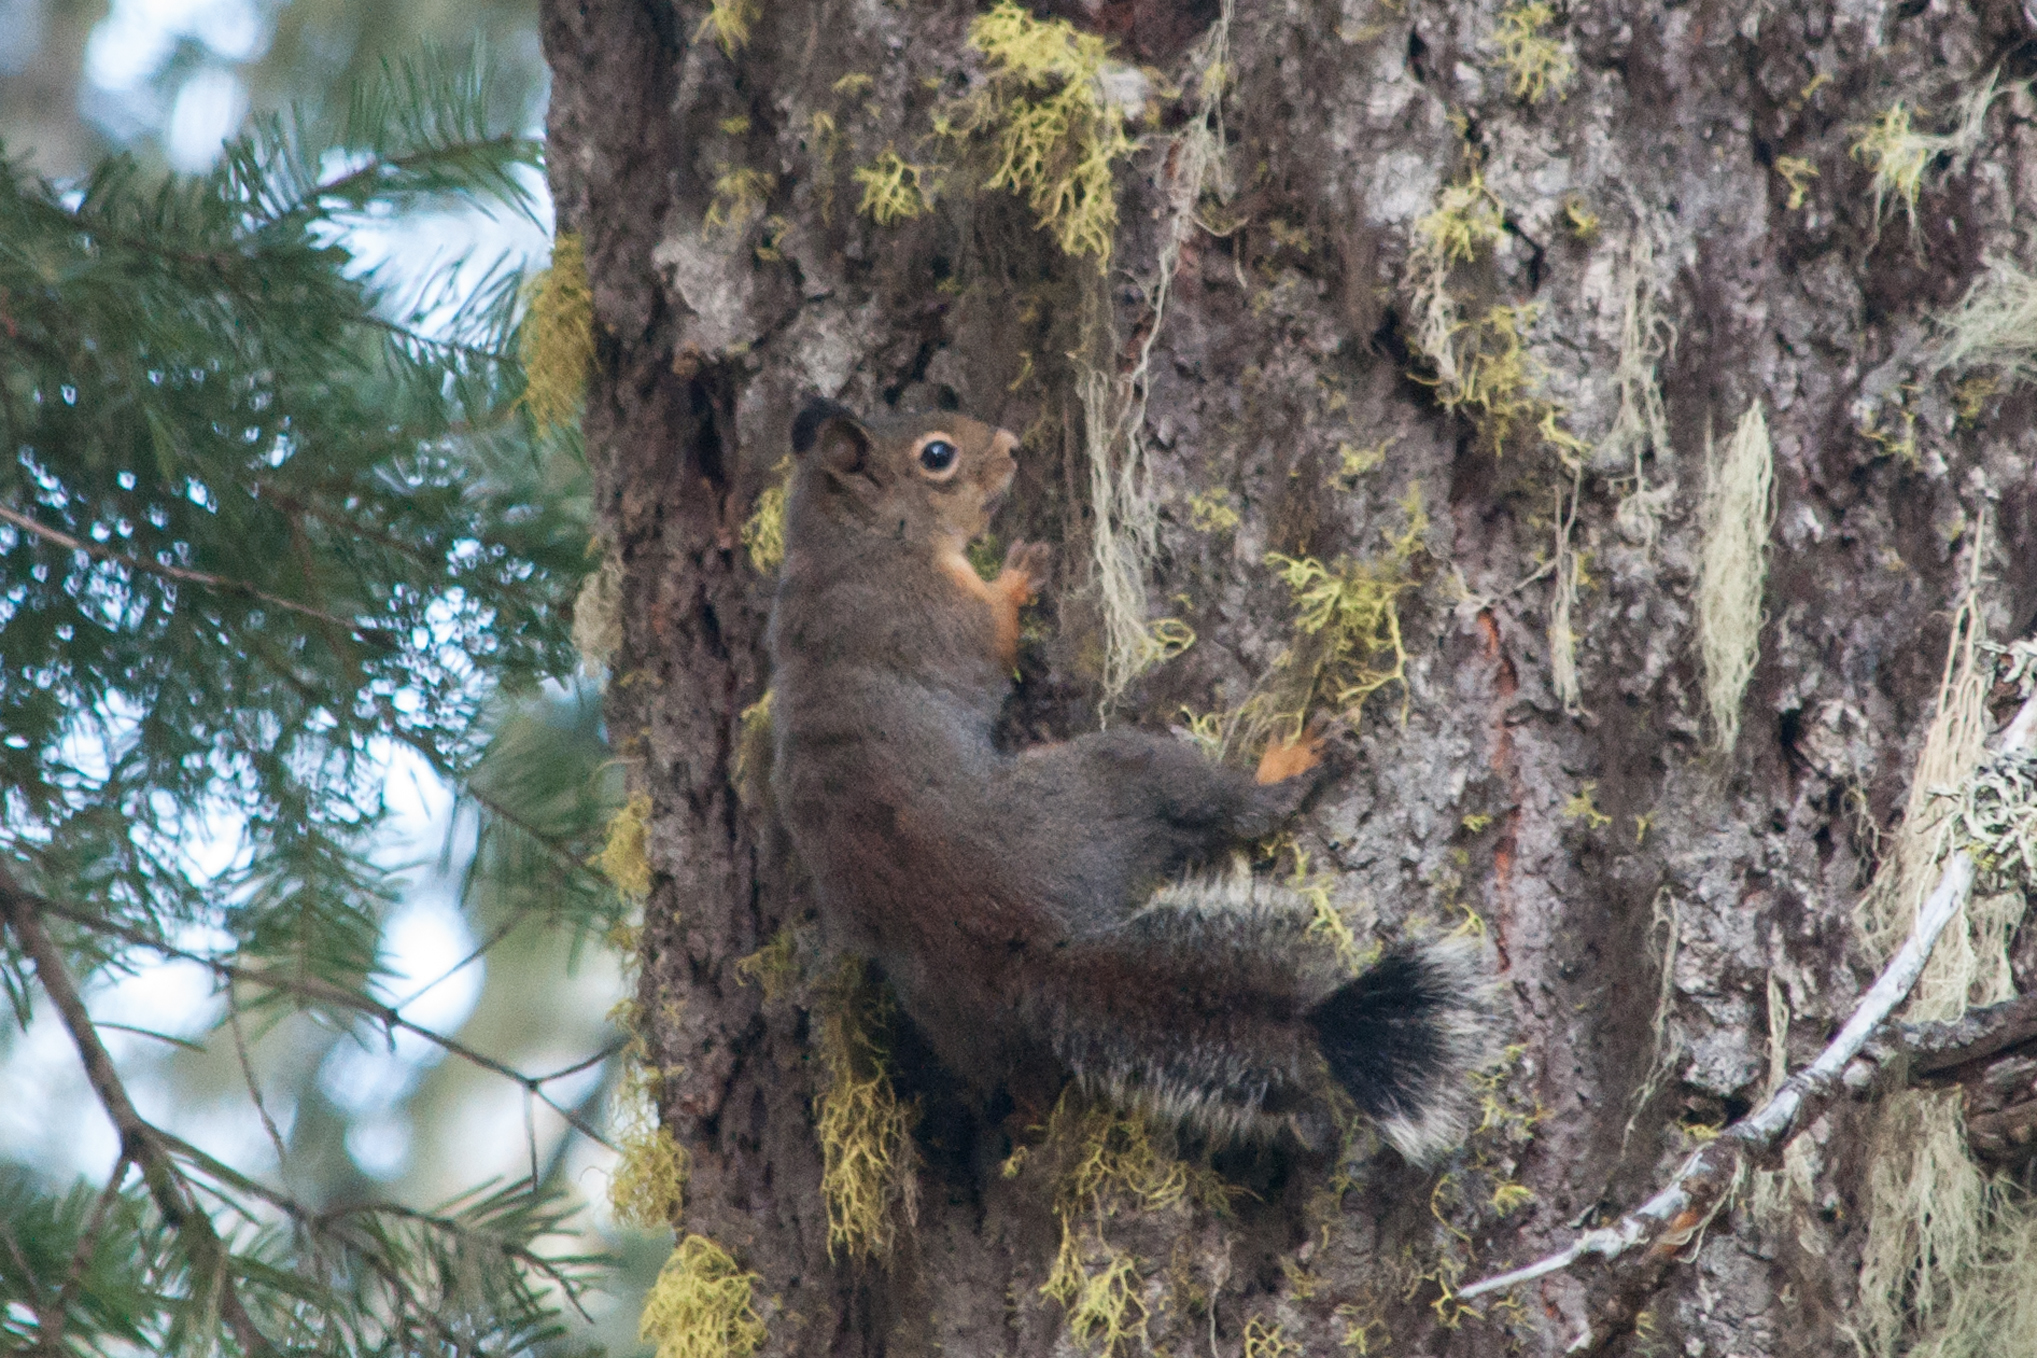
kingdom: Animalia
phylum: Chordata
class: Mammalia
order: Rodentia
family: Sciuridae
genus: Tamiasciurus
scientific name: Tamiasciurus douglasii
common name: Douglas's squirrel
